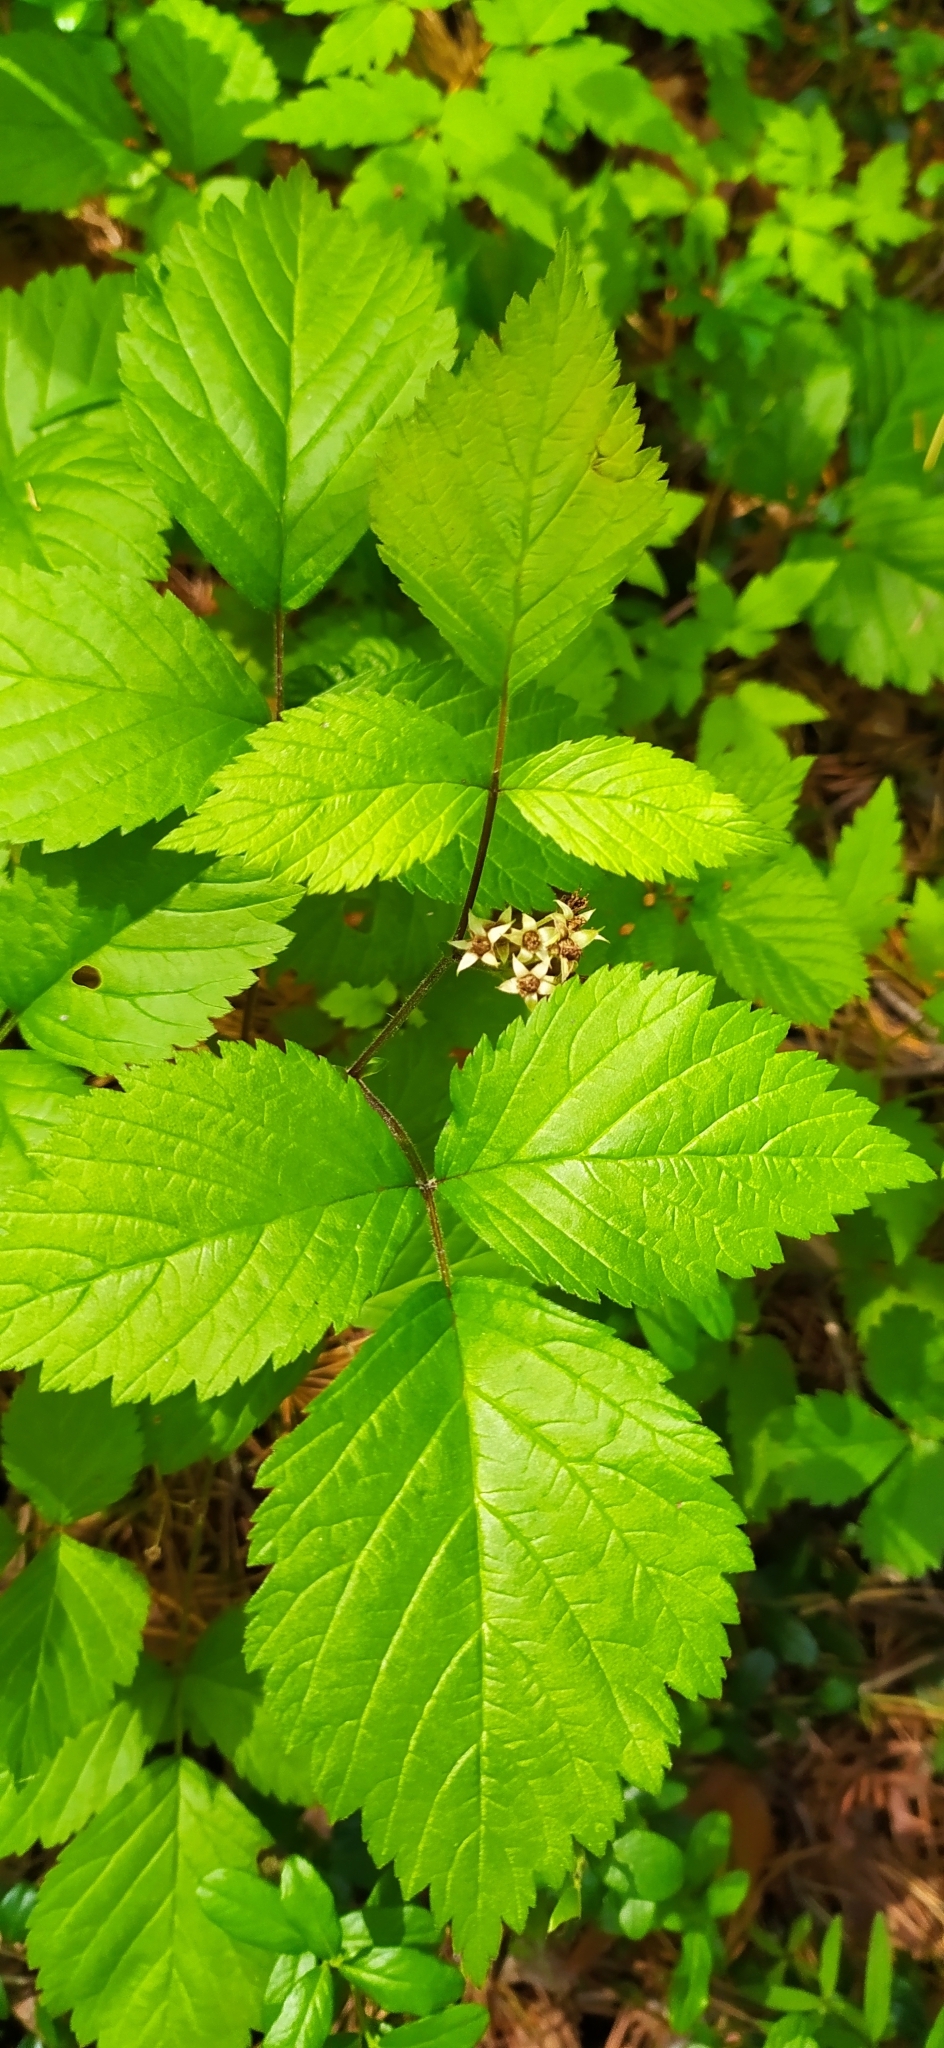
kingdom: Plantae
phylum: Tracheophyta
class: Magnoliopsida
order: Rosales
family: Rosaceae
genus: Rubus
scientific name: Rubus saxatilis
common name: Stone bramble
